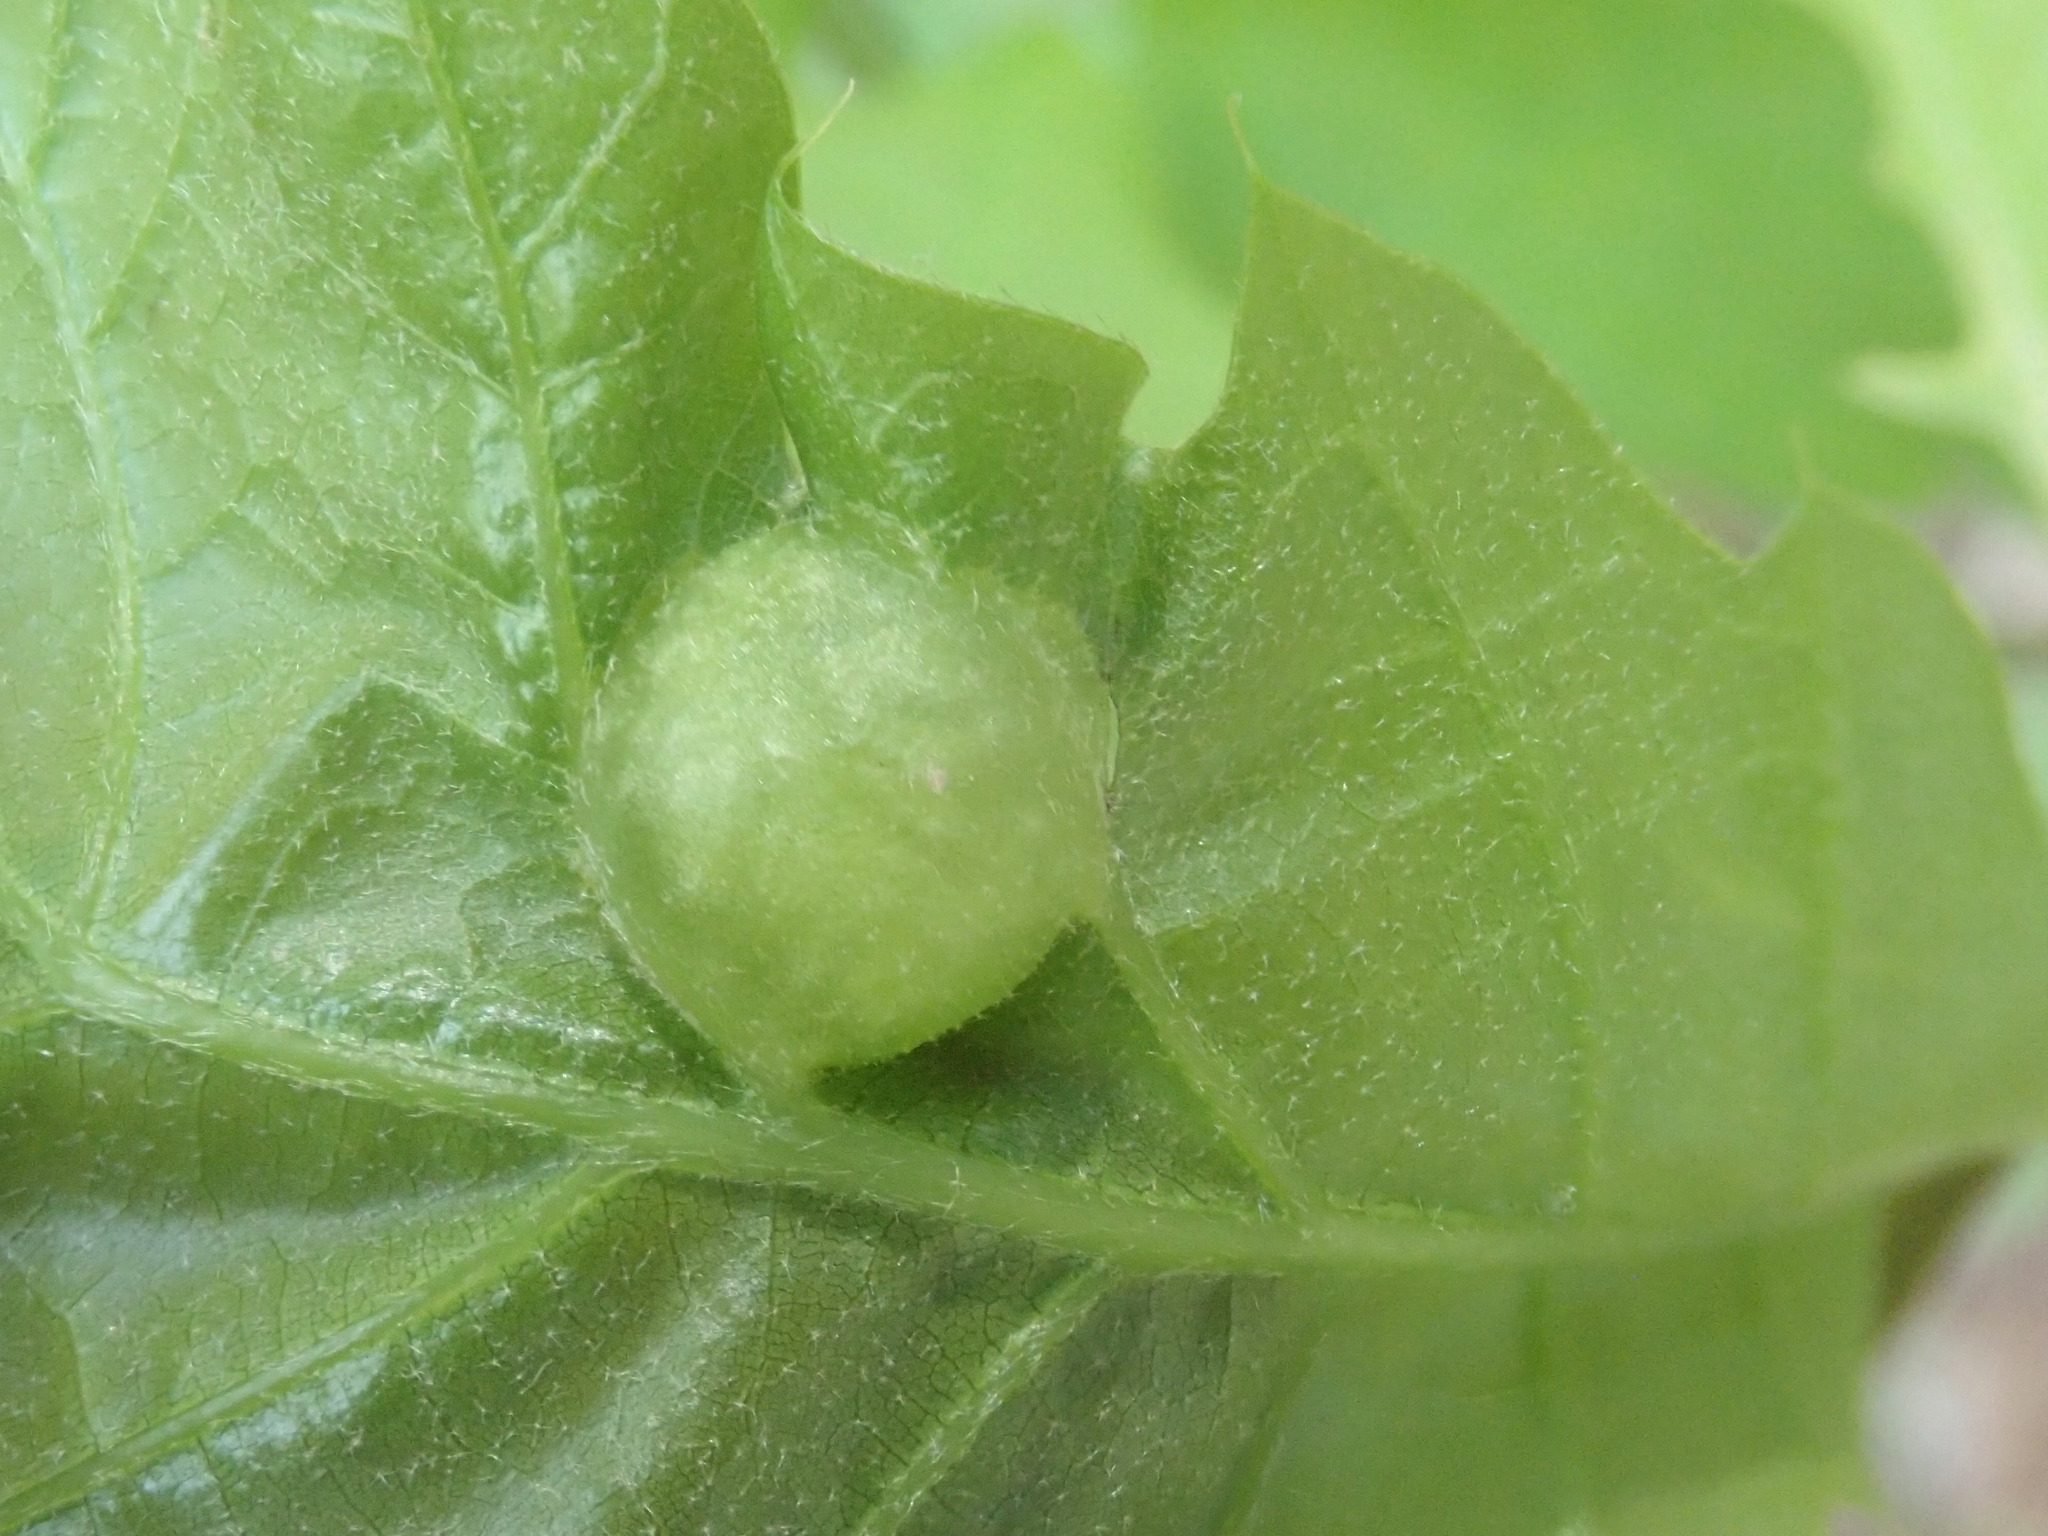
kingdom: Animalia
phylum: Arthropoda
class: Insecta
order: Hymenoptera
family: Cynipidae
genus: Dryocosmus
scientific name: Dryocosmus quercuspalustris
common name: Succulent oak gall wasp
